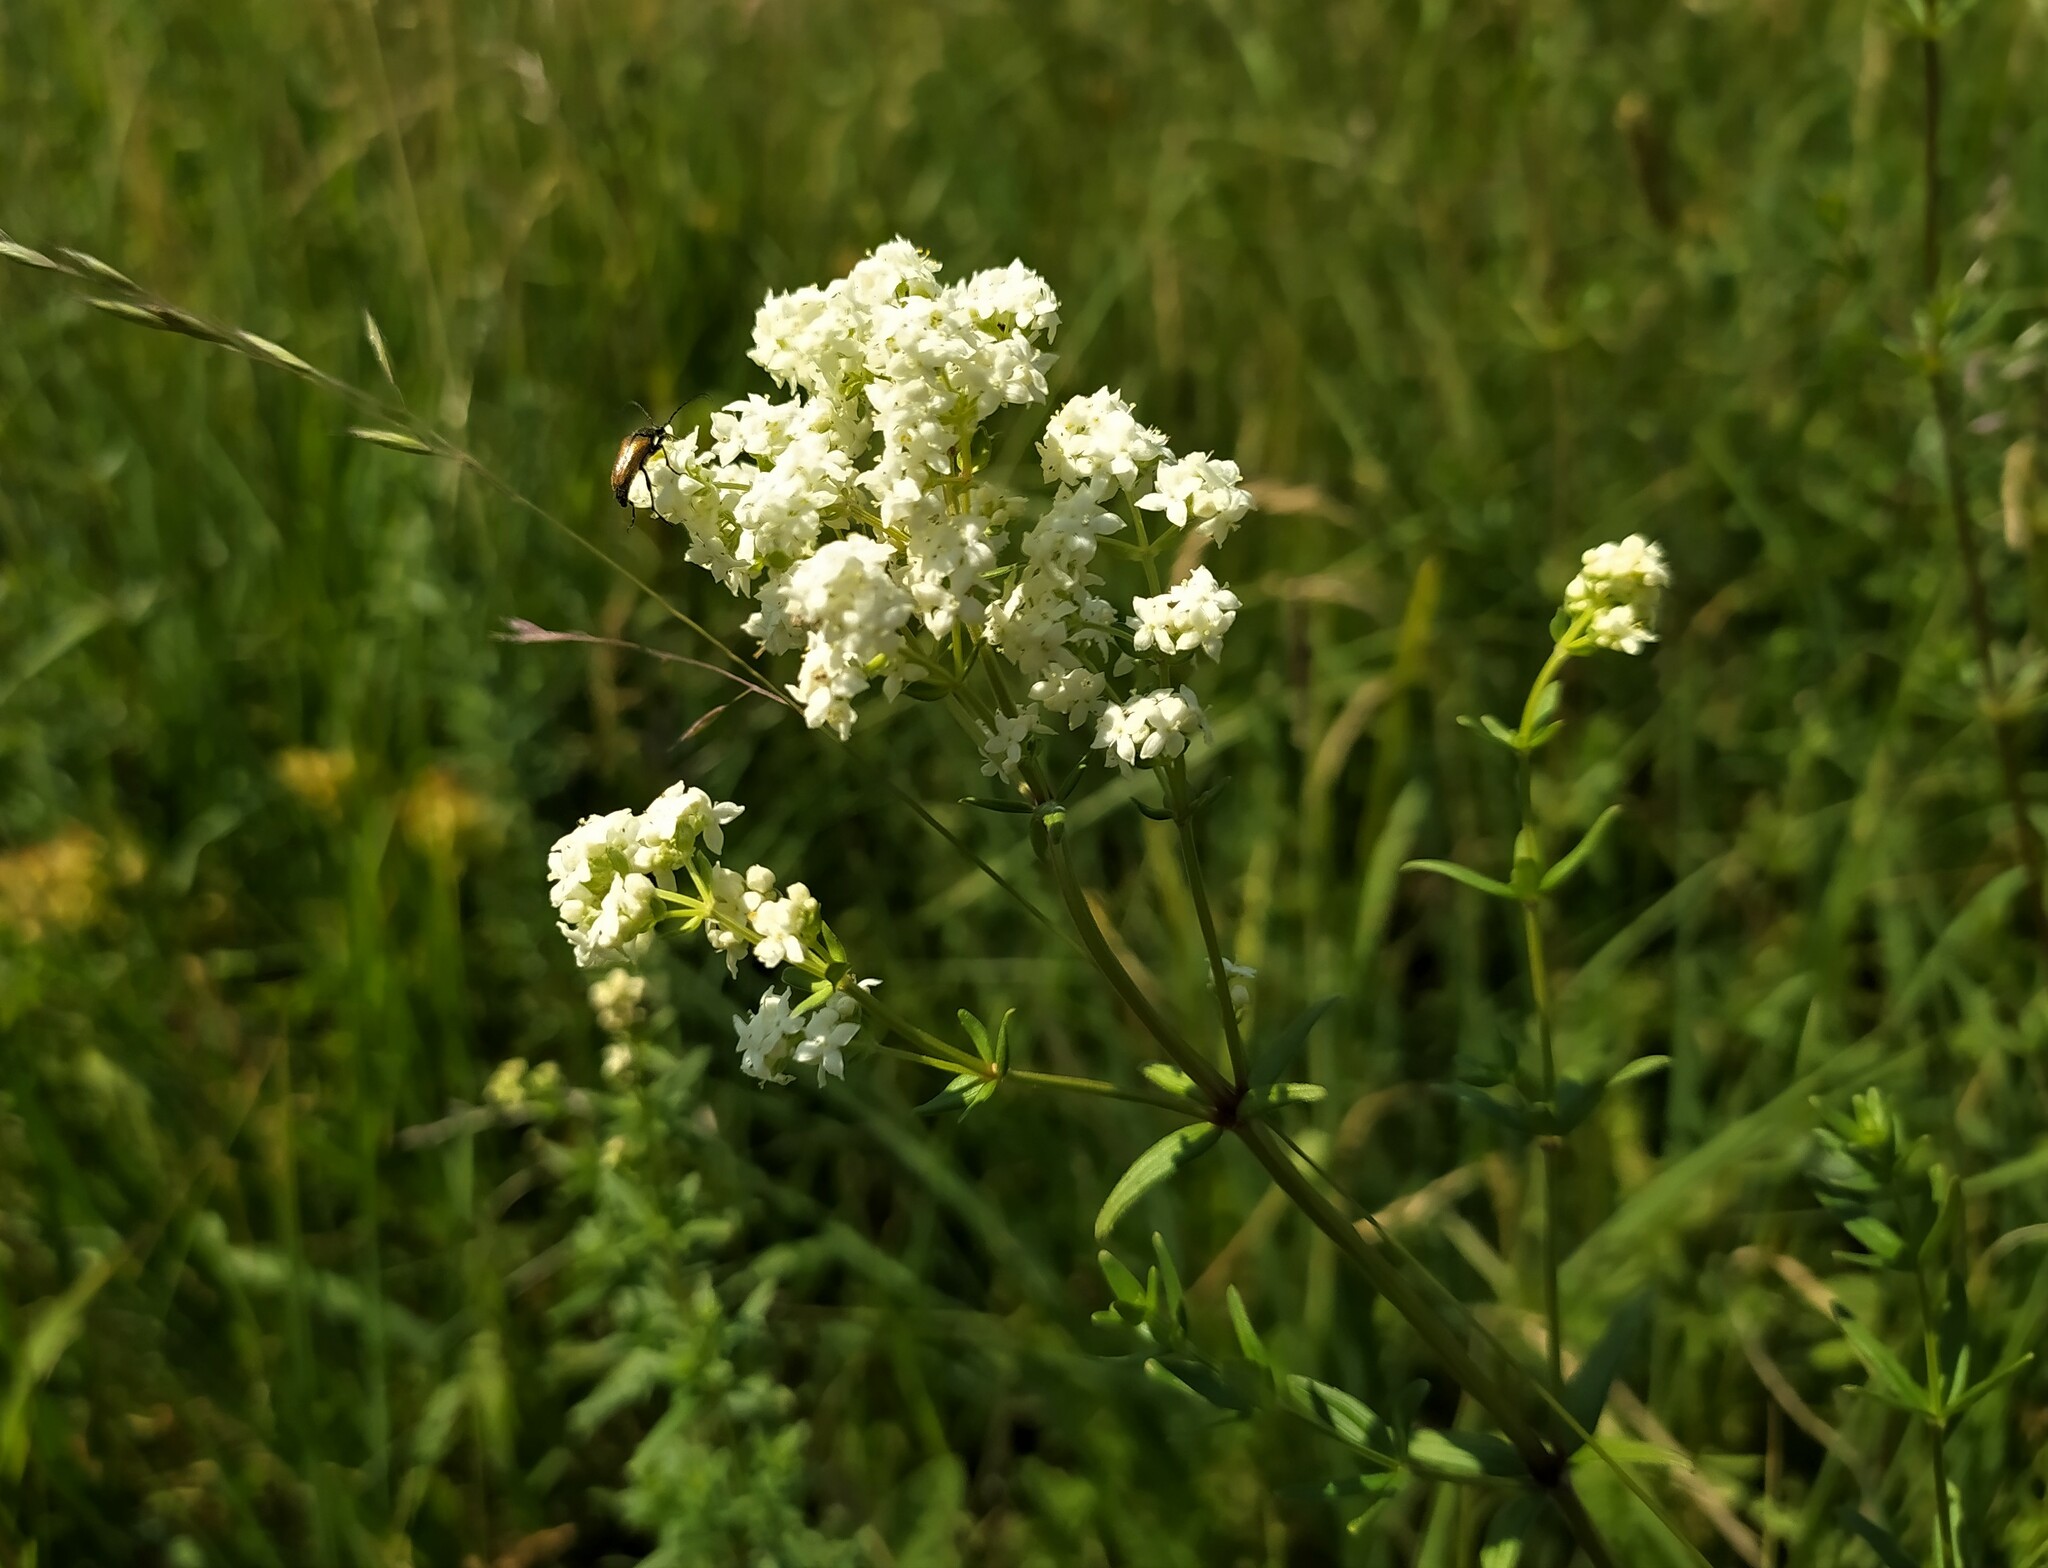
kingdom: Plantae
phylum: Tracheophyta
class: Magnoliopsida
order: Gentianales
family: Rubiaceae
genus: Galium
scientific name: Galium boreale
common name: Northern bedstraw
